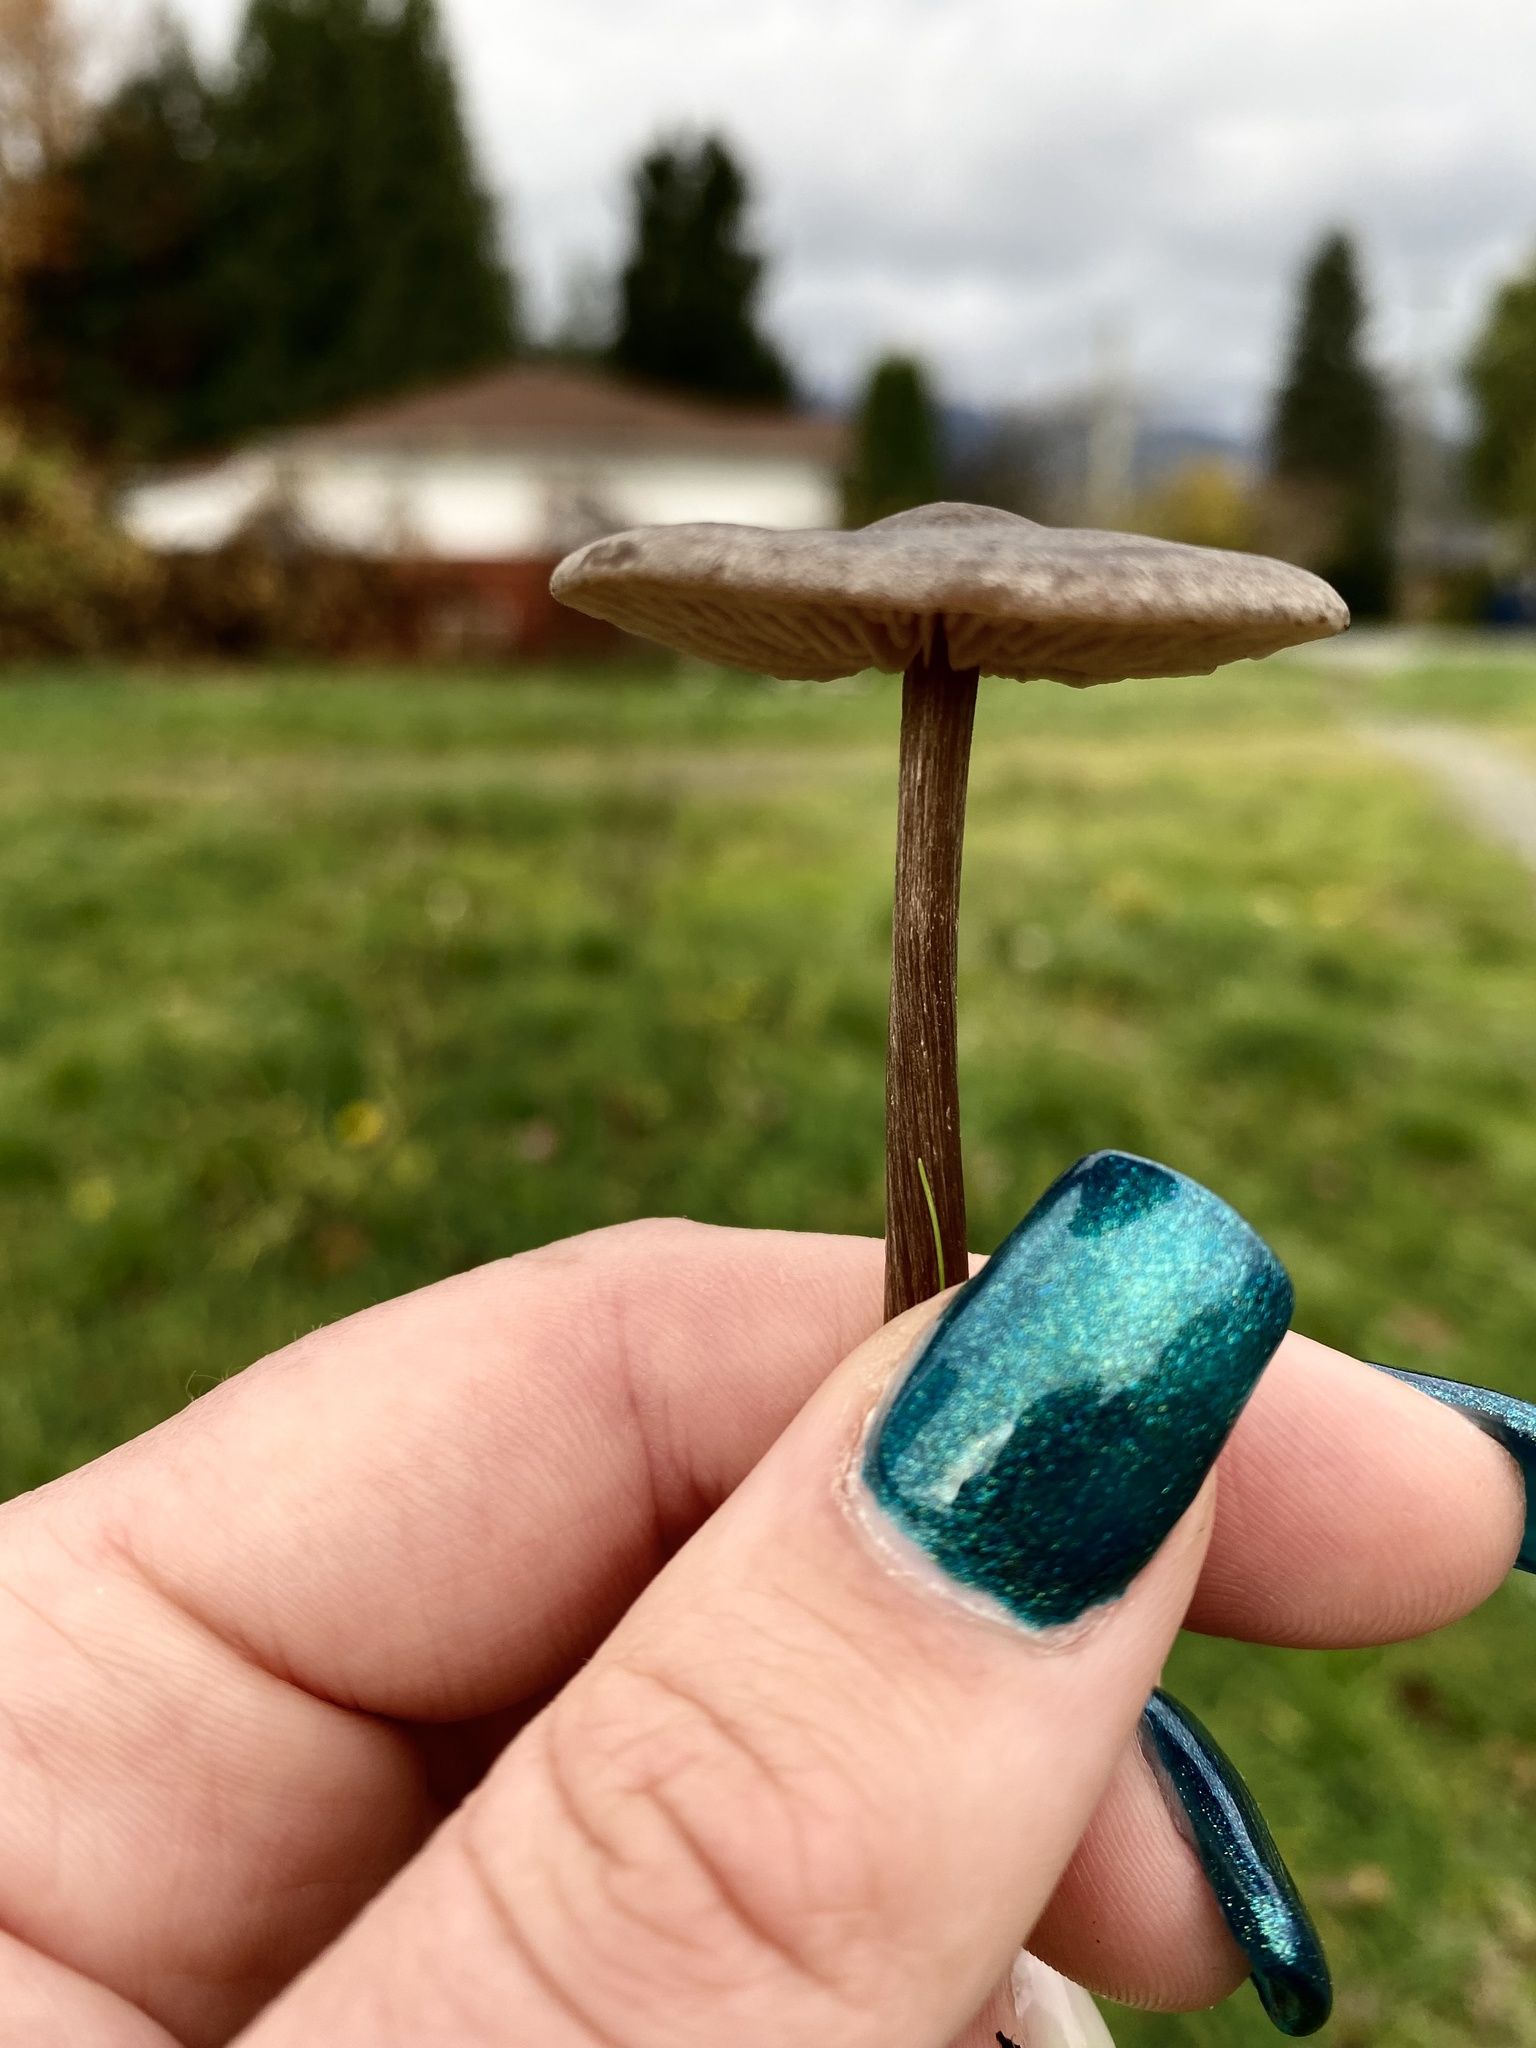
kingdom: Fungi
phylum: Basidiomycota
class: Agaricomycetes
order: Agaricales
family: Entolomataceae
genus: Entoloma
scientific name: Entoloma sericeum
